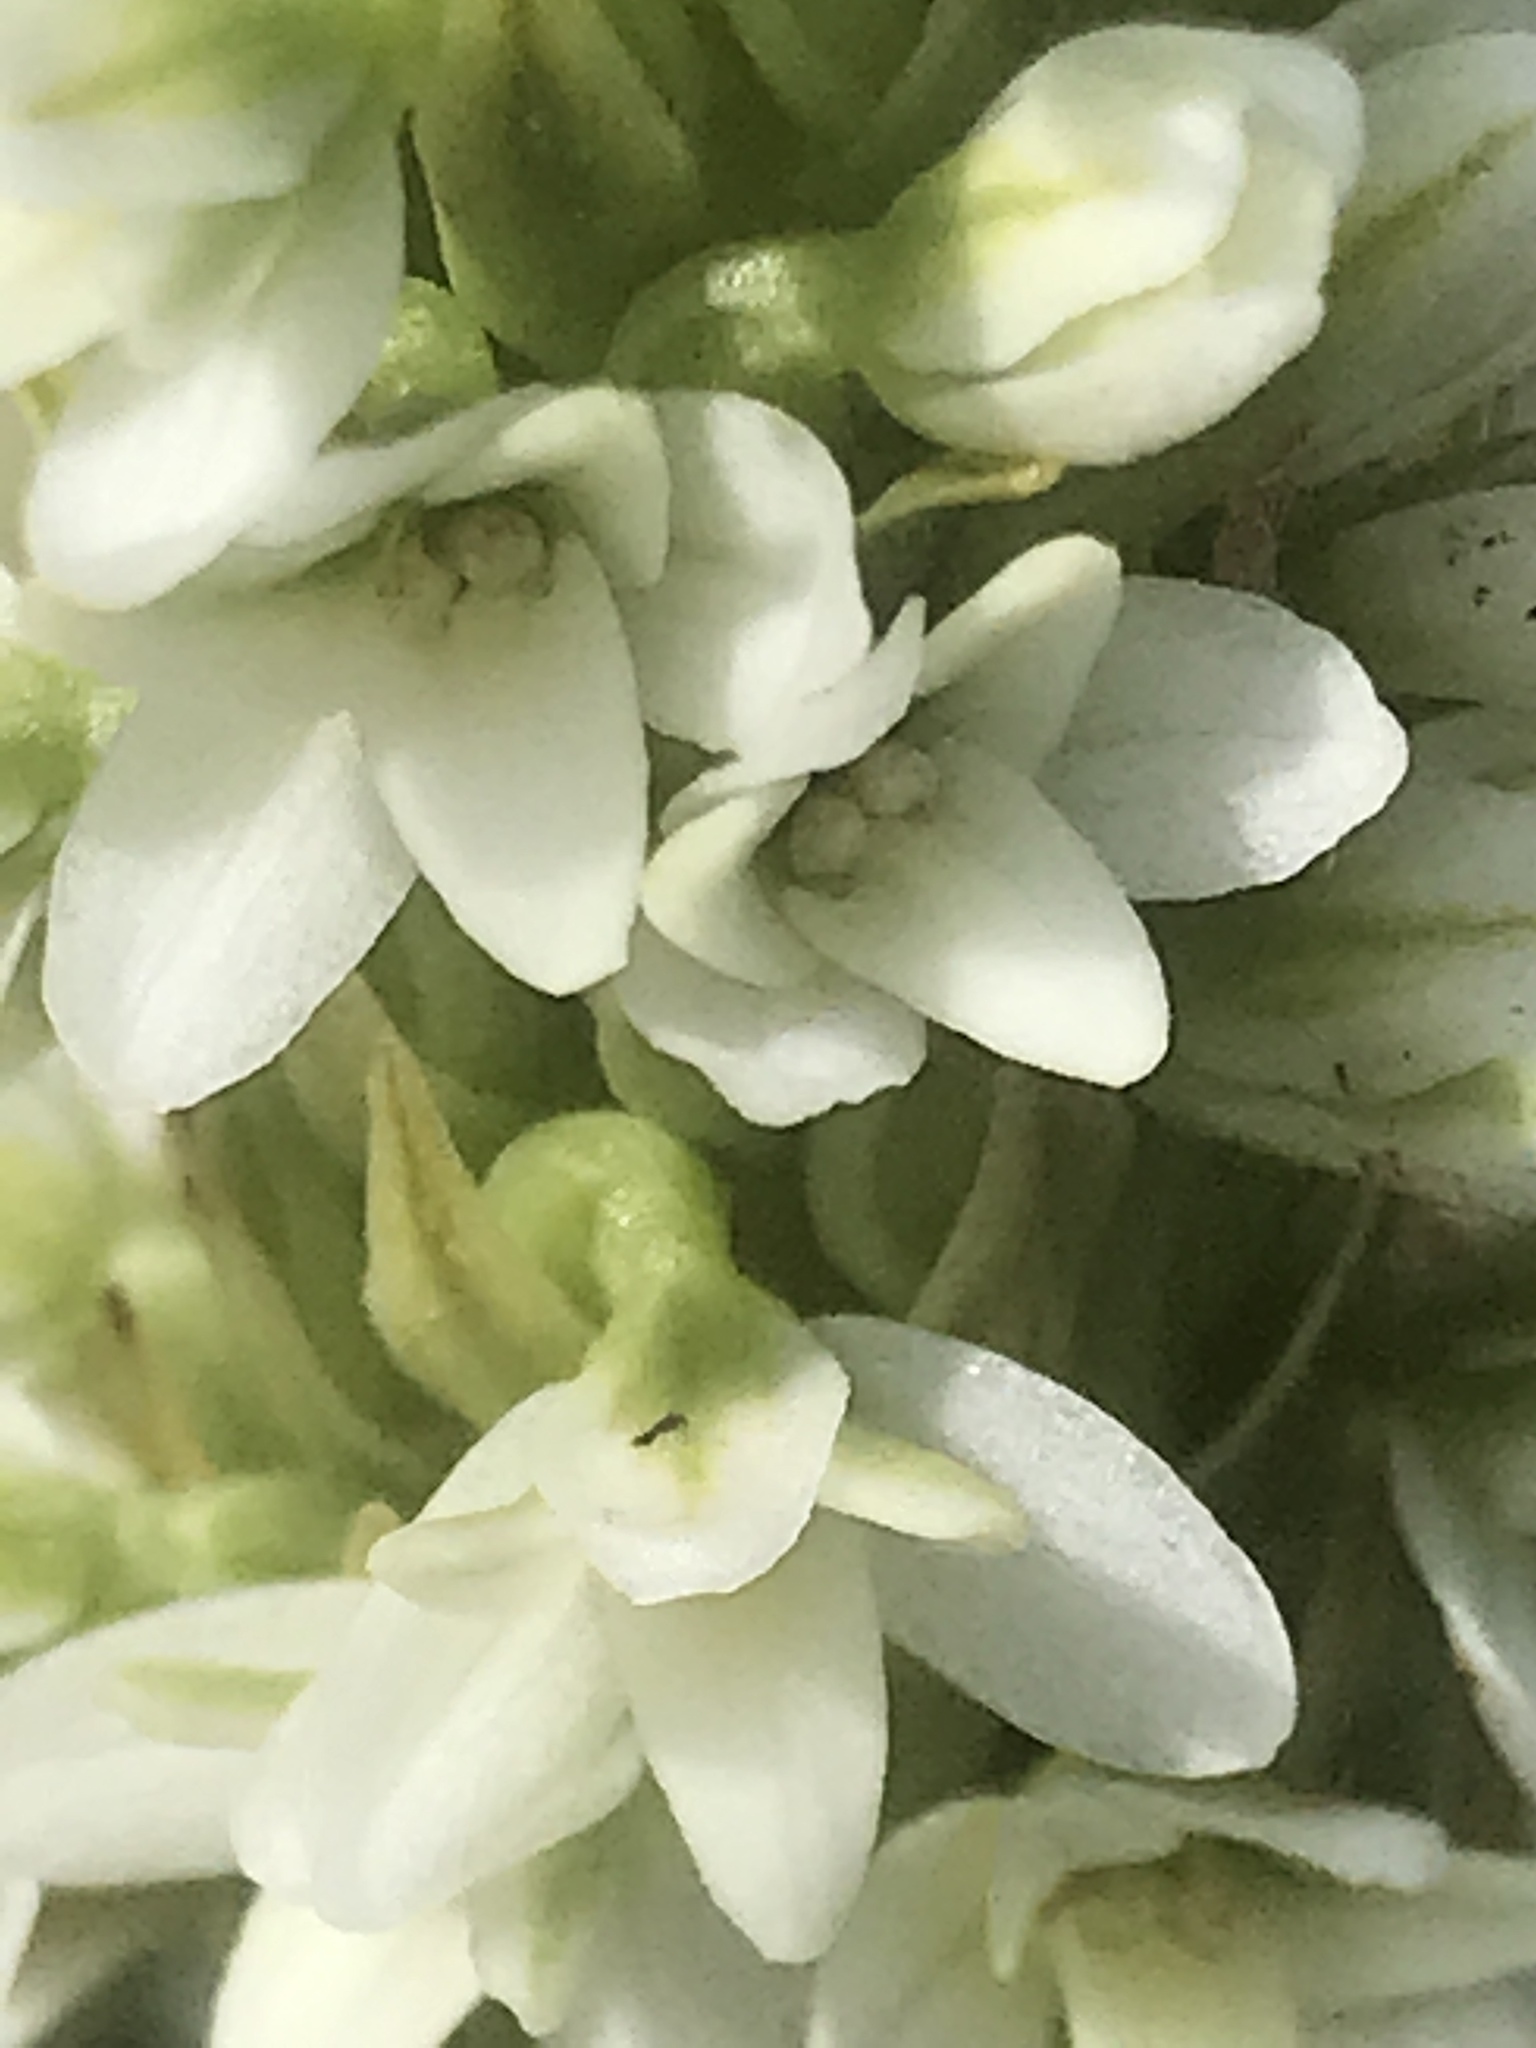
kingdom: Plantae
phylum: Tracheophyta
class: Liliopsida
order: Asparagales
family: Orchidaceae
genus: Platanthera
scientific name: Platanthera elegans
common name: Coast piperia
